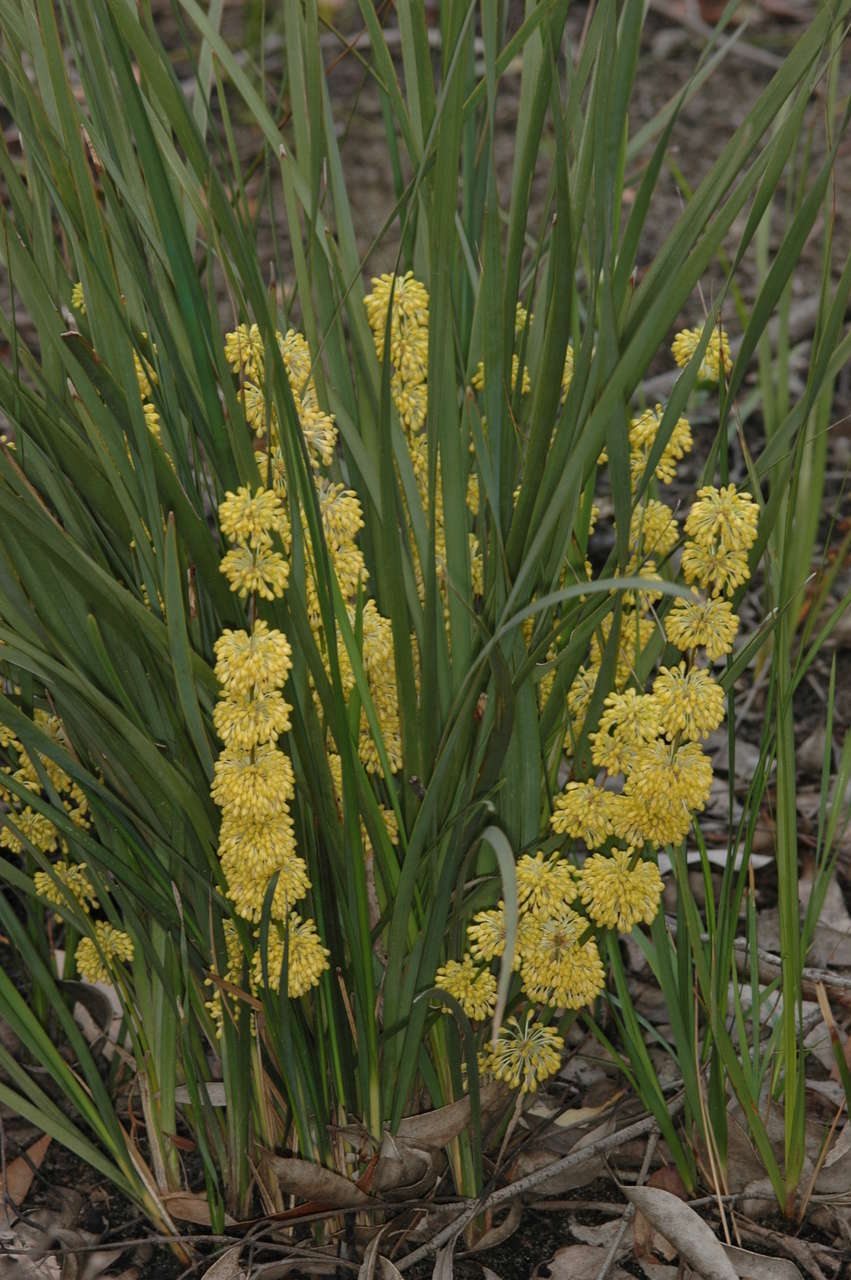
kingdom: Plantae
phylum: Tracheophyta
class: Liliopsida
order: Asparagales
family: Asparagaceae
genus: Lomandra
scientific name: Lomandra multiflora
